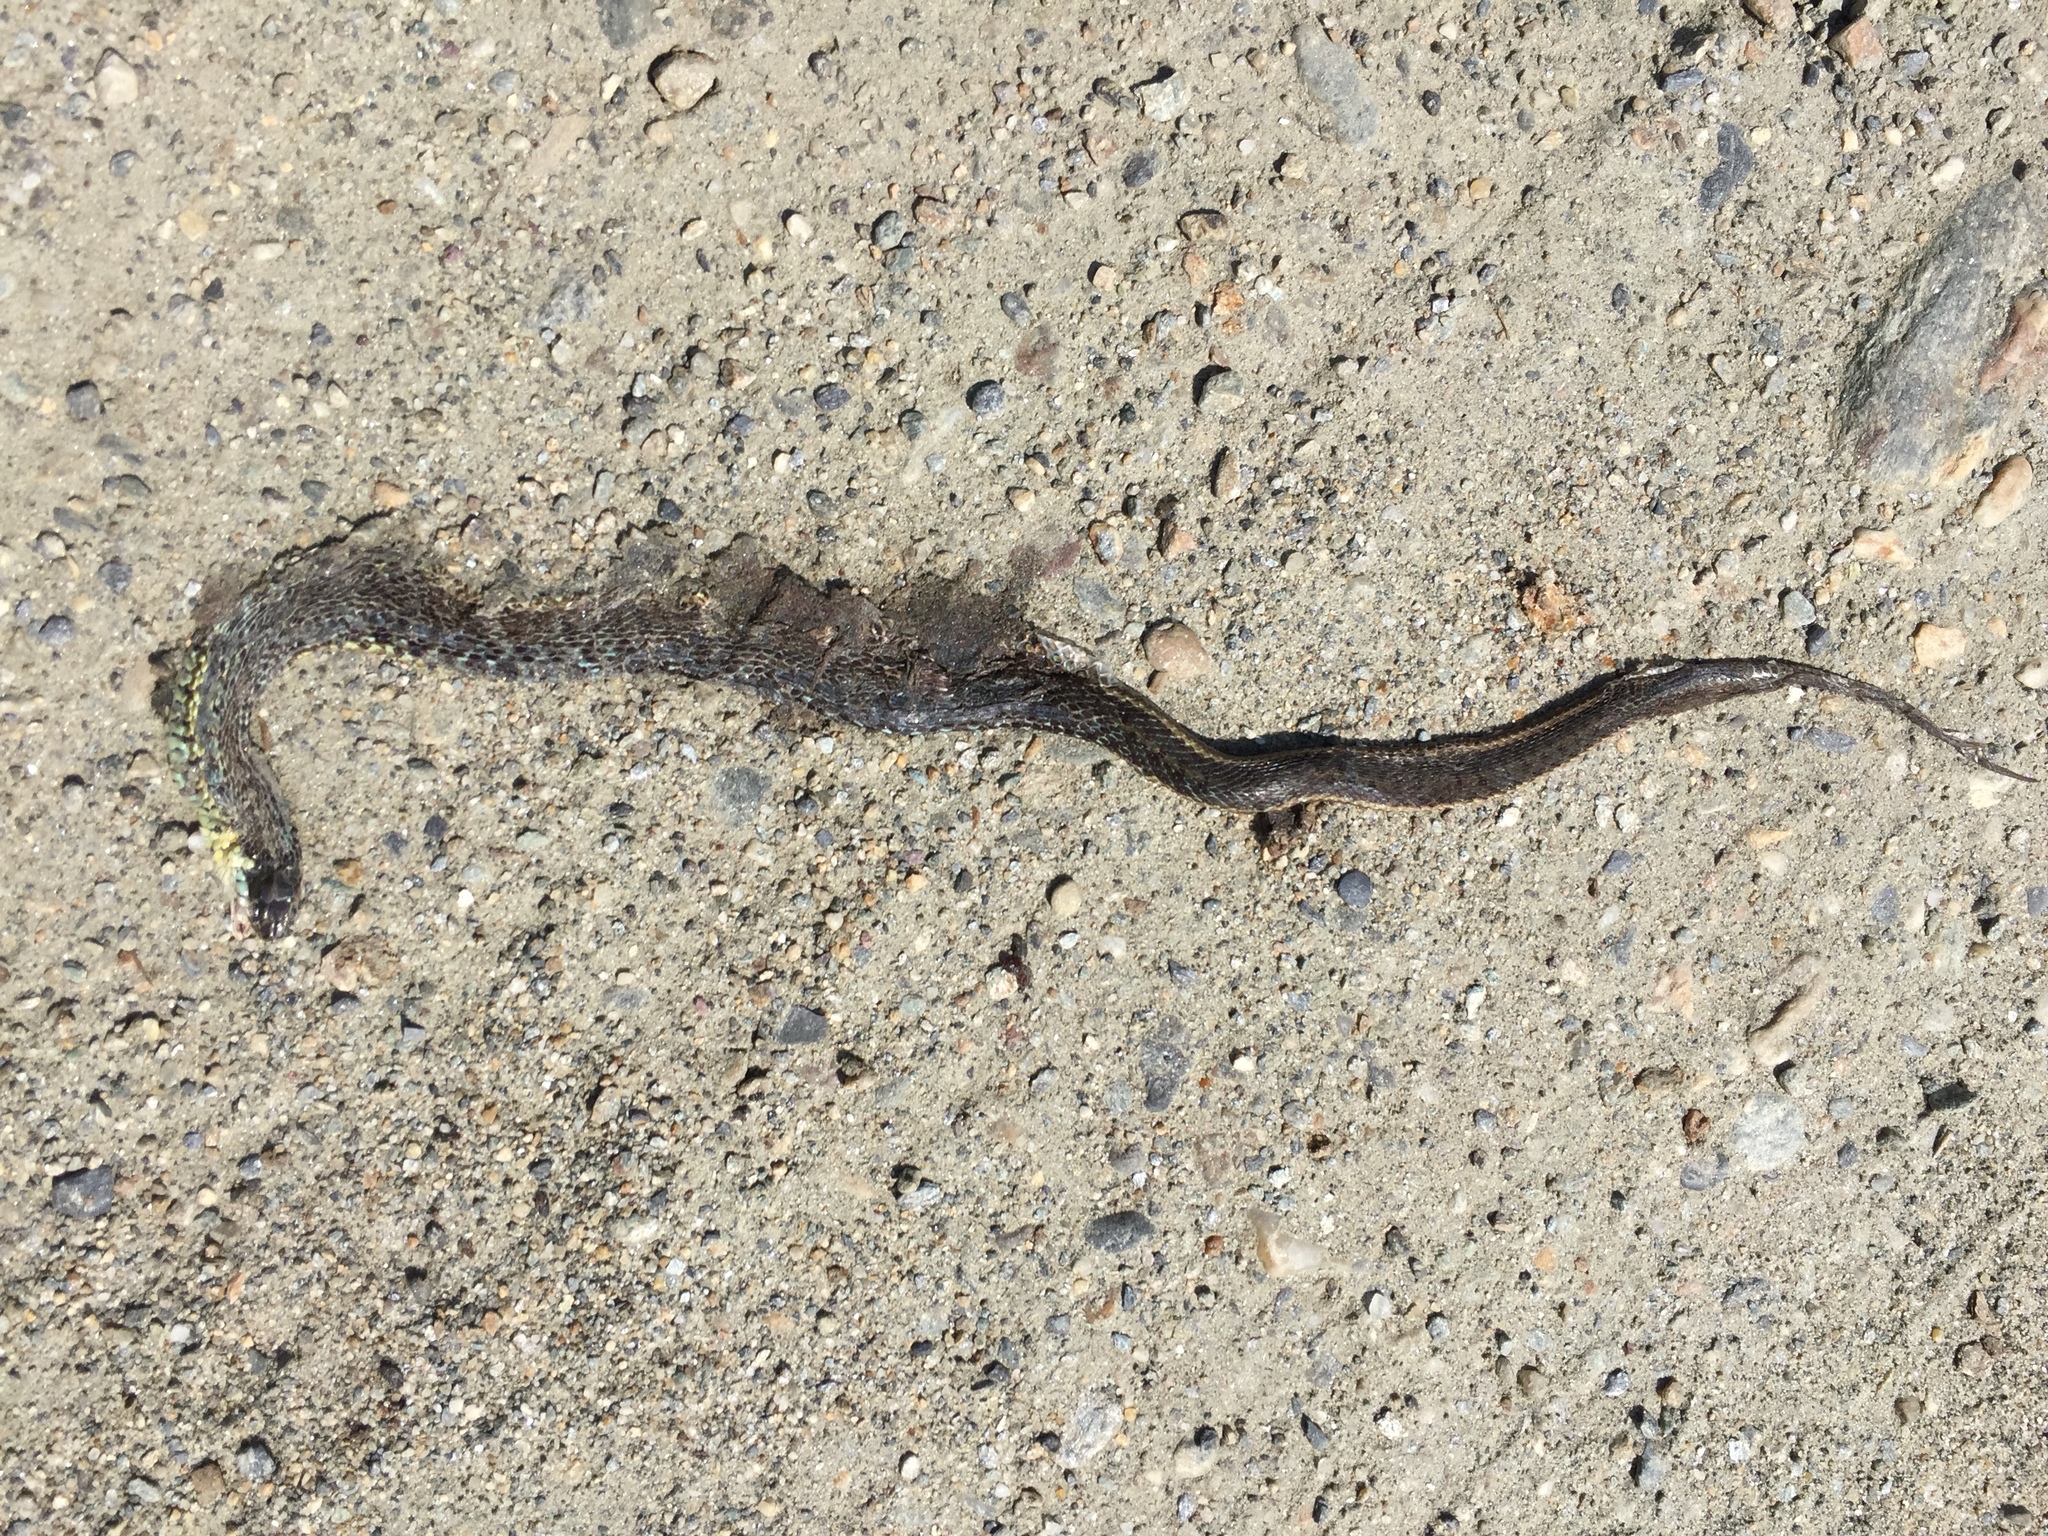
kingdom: Animalia
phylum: Chordata
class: Squamata
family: Colubridae
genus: Thamnophis
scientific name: Thamnophis sirtalis
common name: Common garter snake
